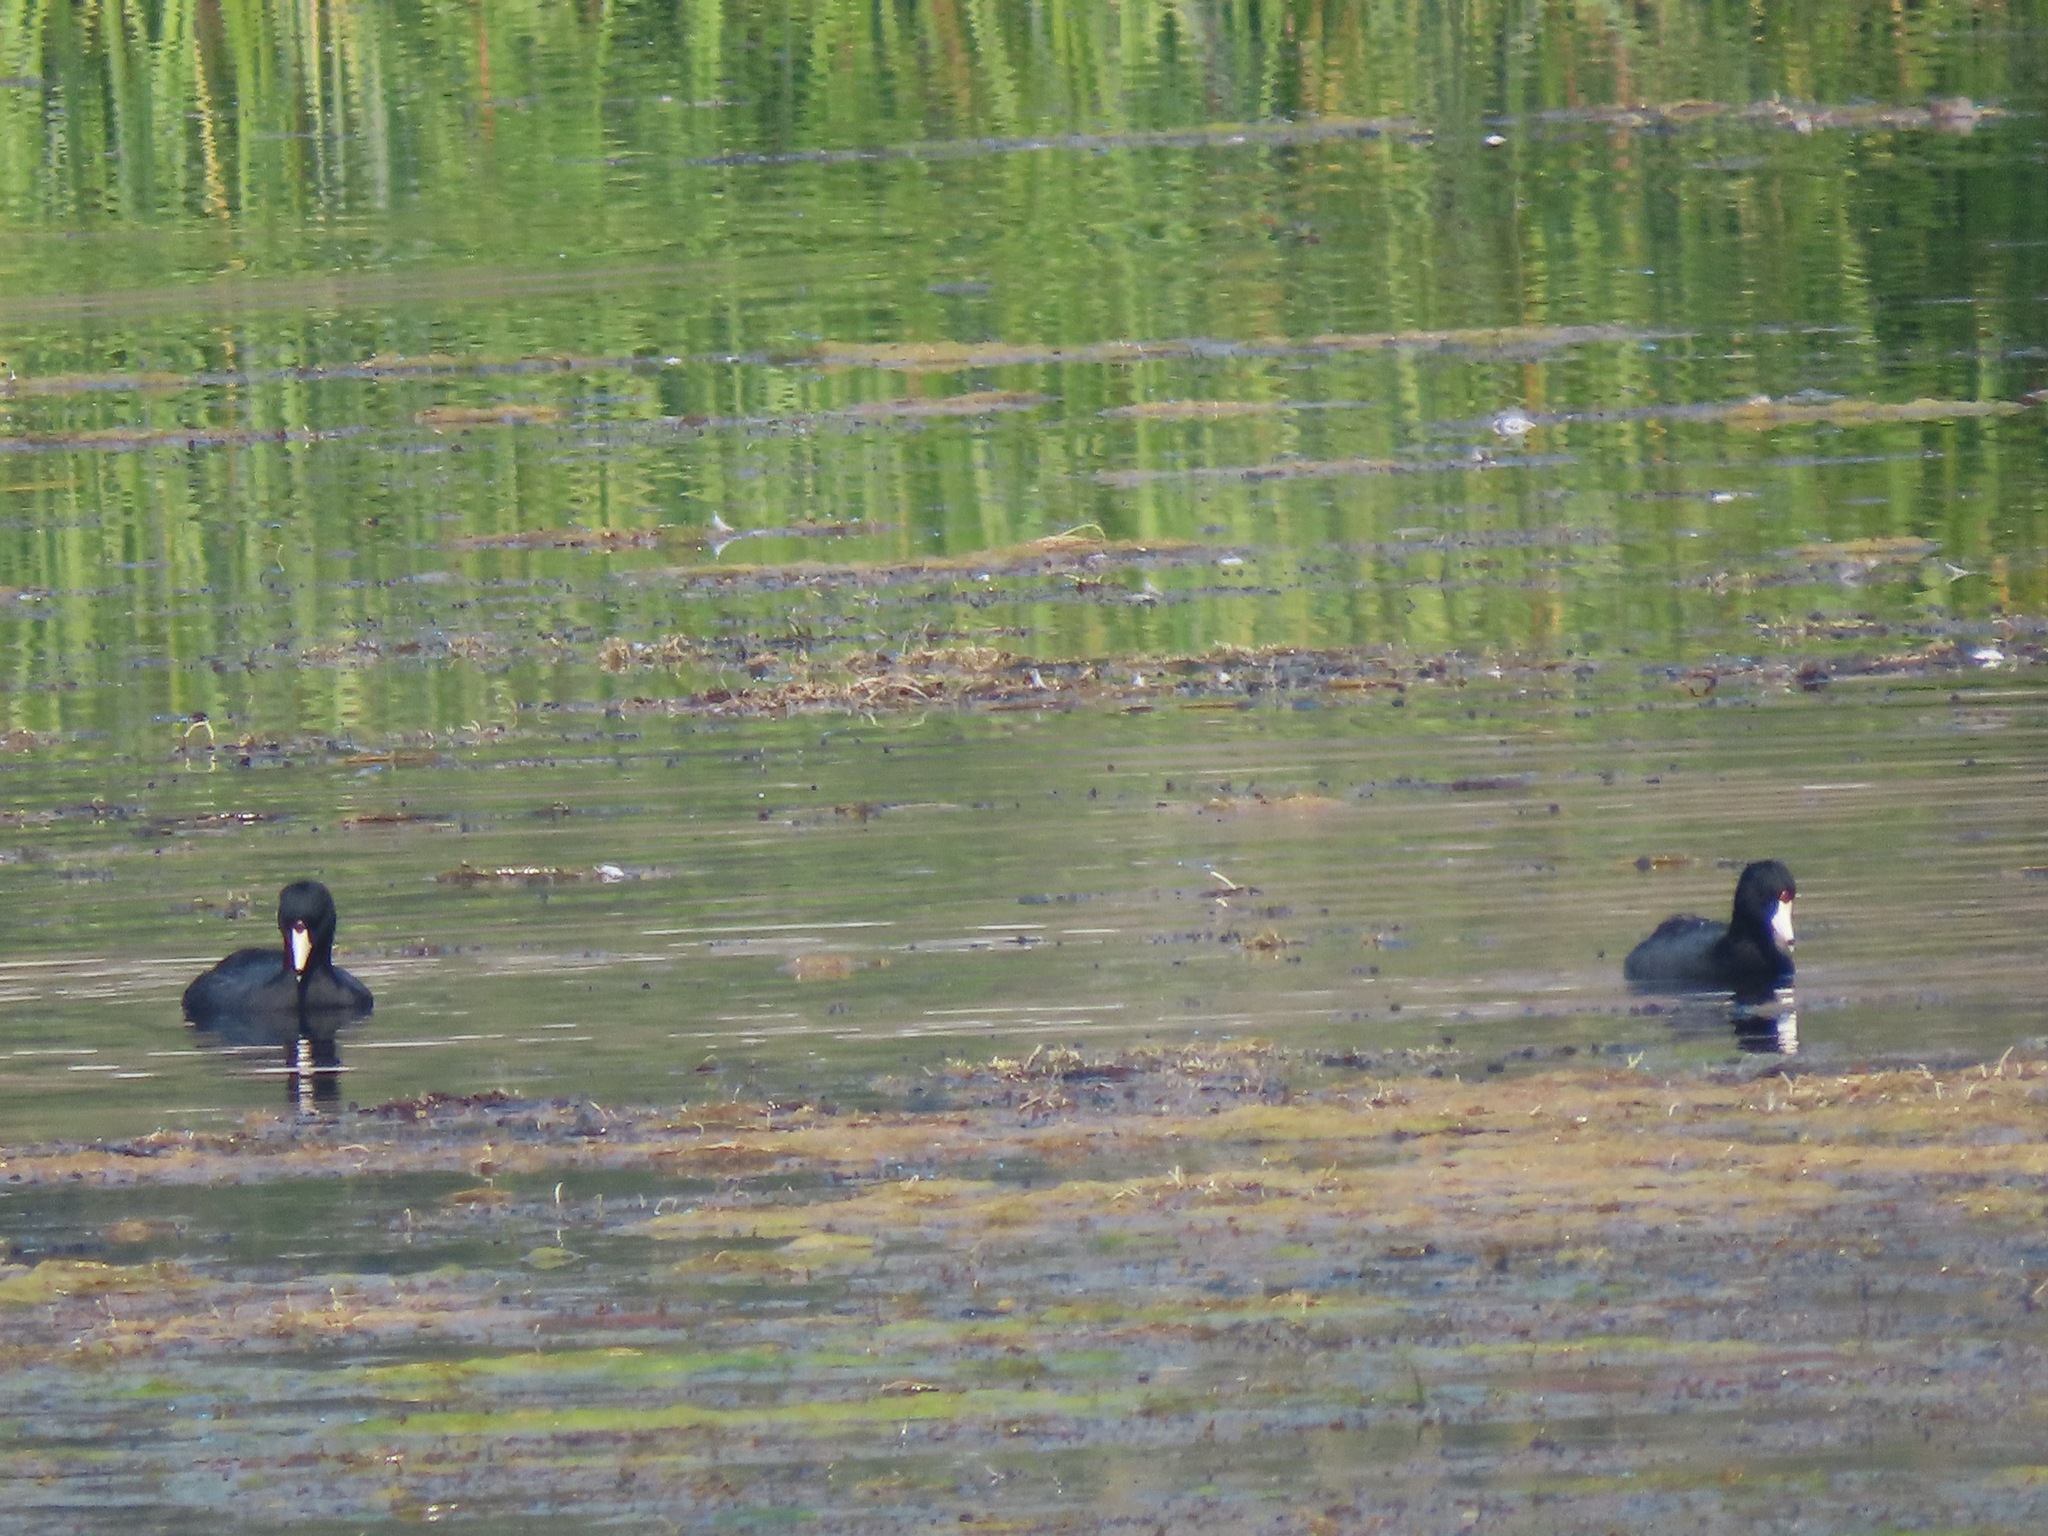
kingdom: Animalia
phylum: Chordata
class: Aves
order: Gruiformes
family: Rallidae
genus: Fulica
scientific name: Fulica americana
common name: American coot
